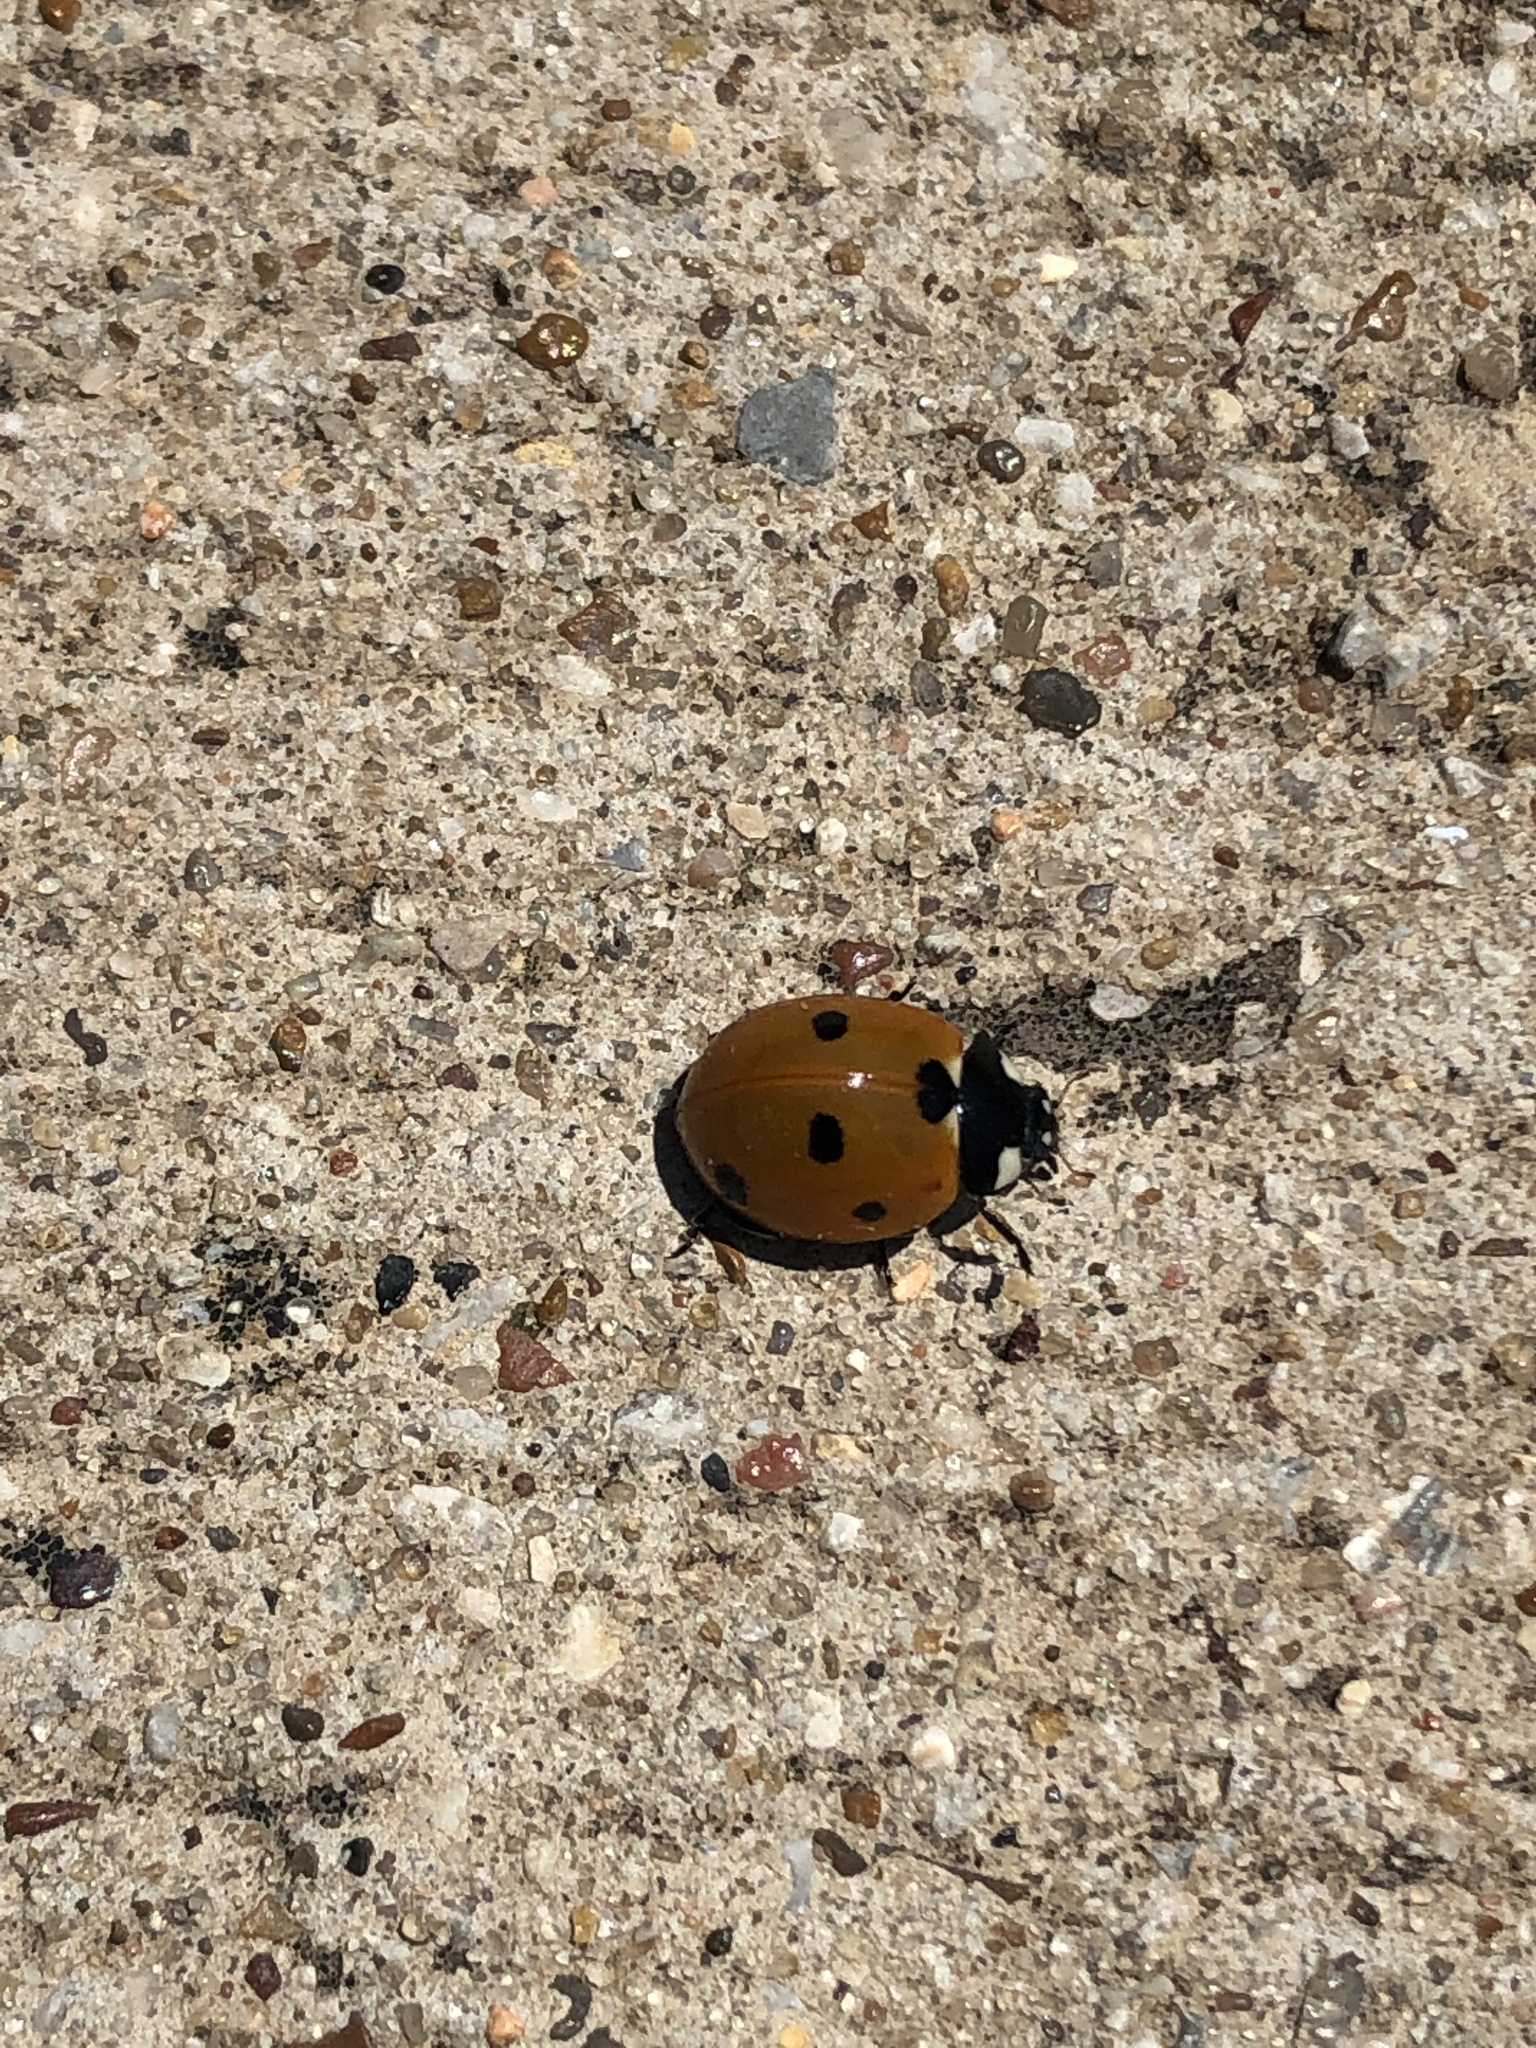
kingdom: Animalia
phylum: Arthropoda
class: Insecta
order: Coleoptera
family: Coccinellidae
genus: Coccinella
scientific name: Coccinella septempunctata
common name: Sevenspotted lady beetle
